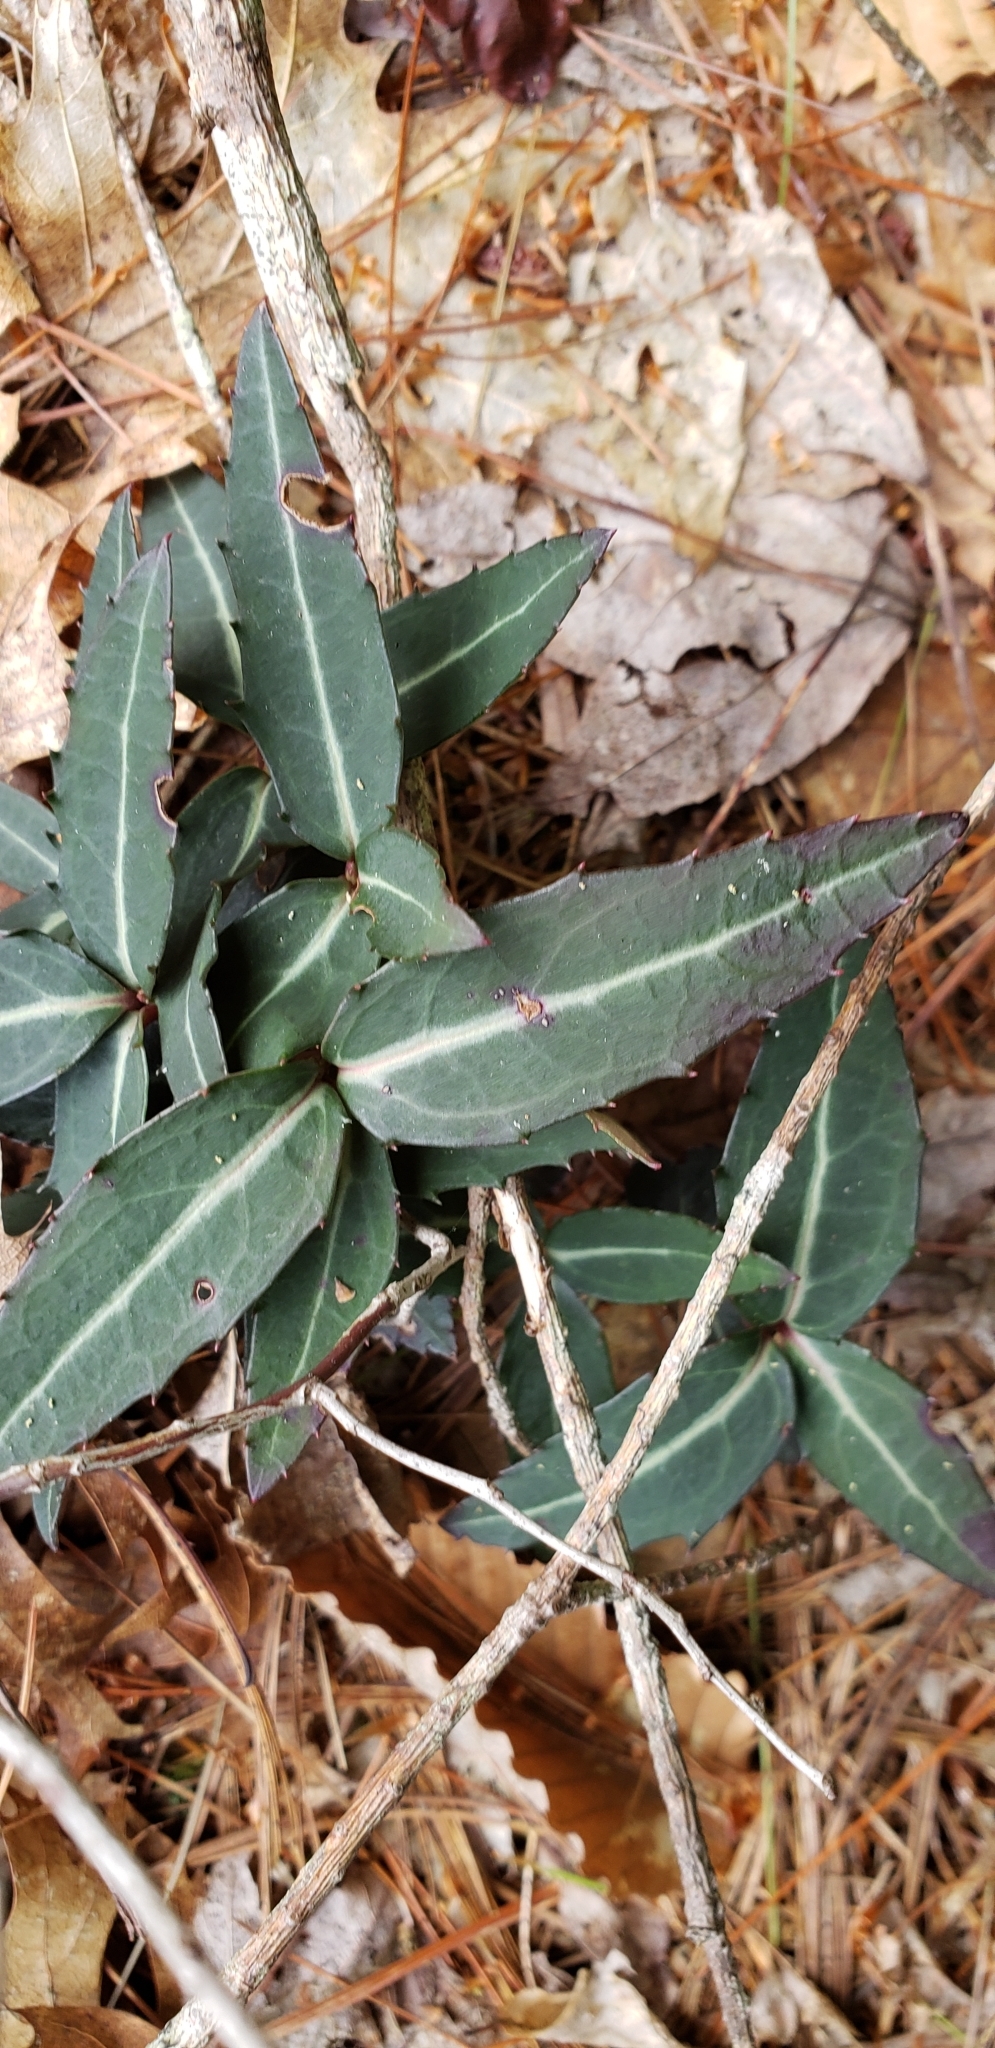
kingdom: Plantae
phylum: Tracheophyta
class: Magnoliopsida
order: Ericales
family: Ericaceae
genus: Chimaphila
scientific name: Chimaphila maculata
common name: Spotted pipsissewa
